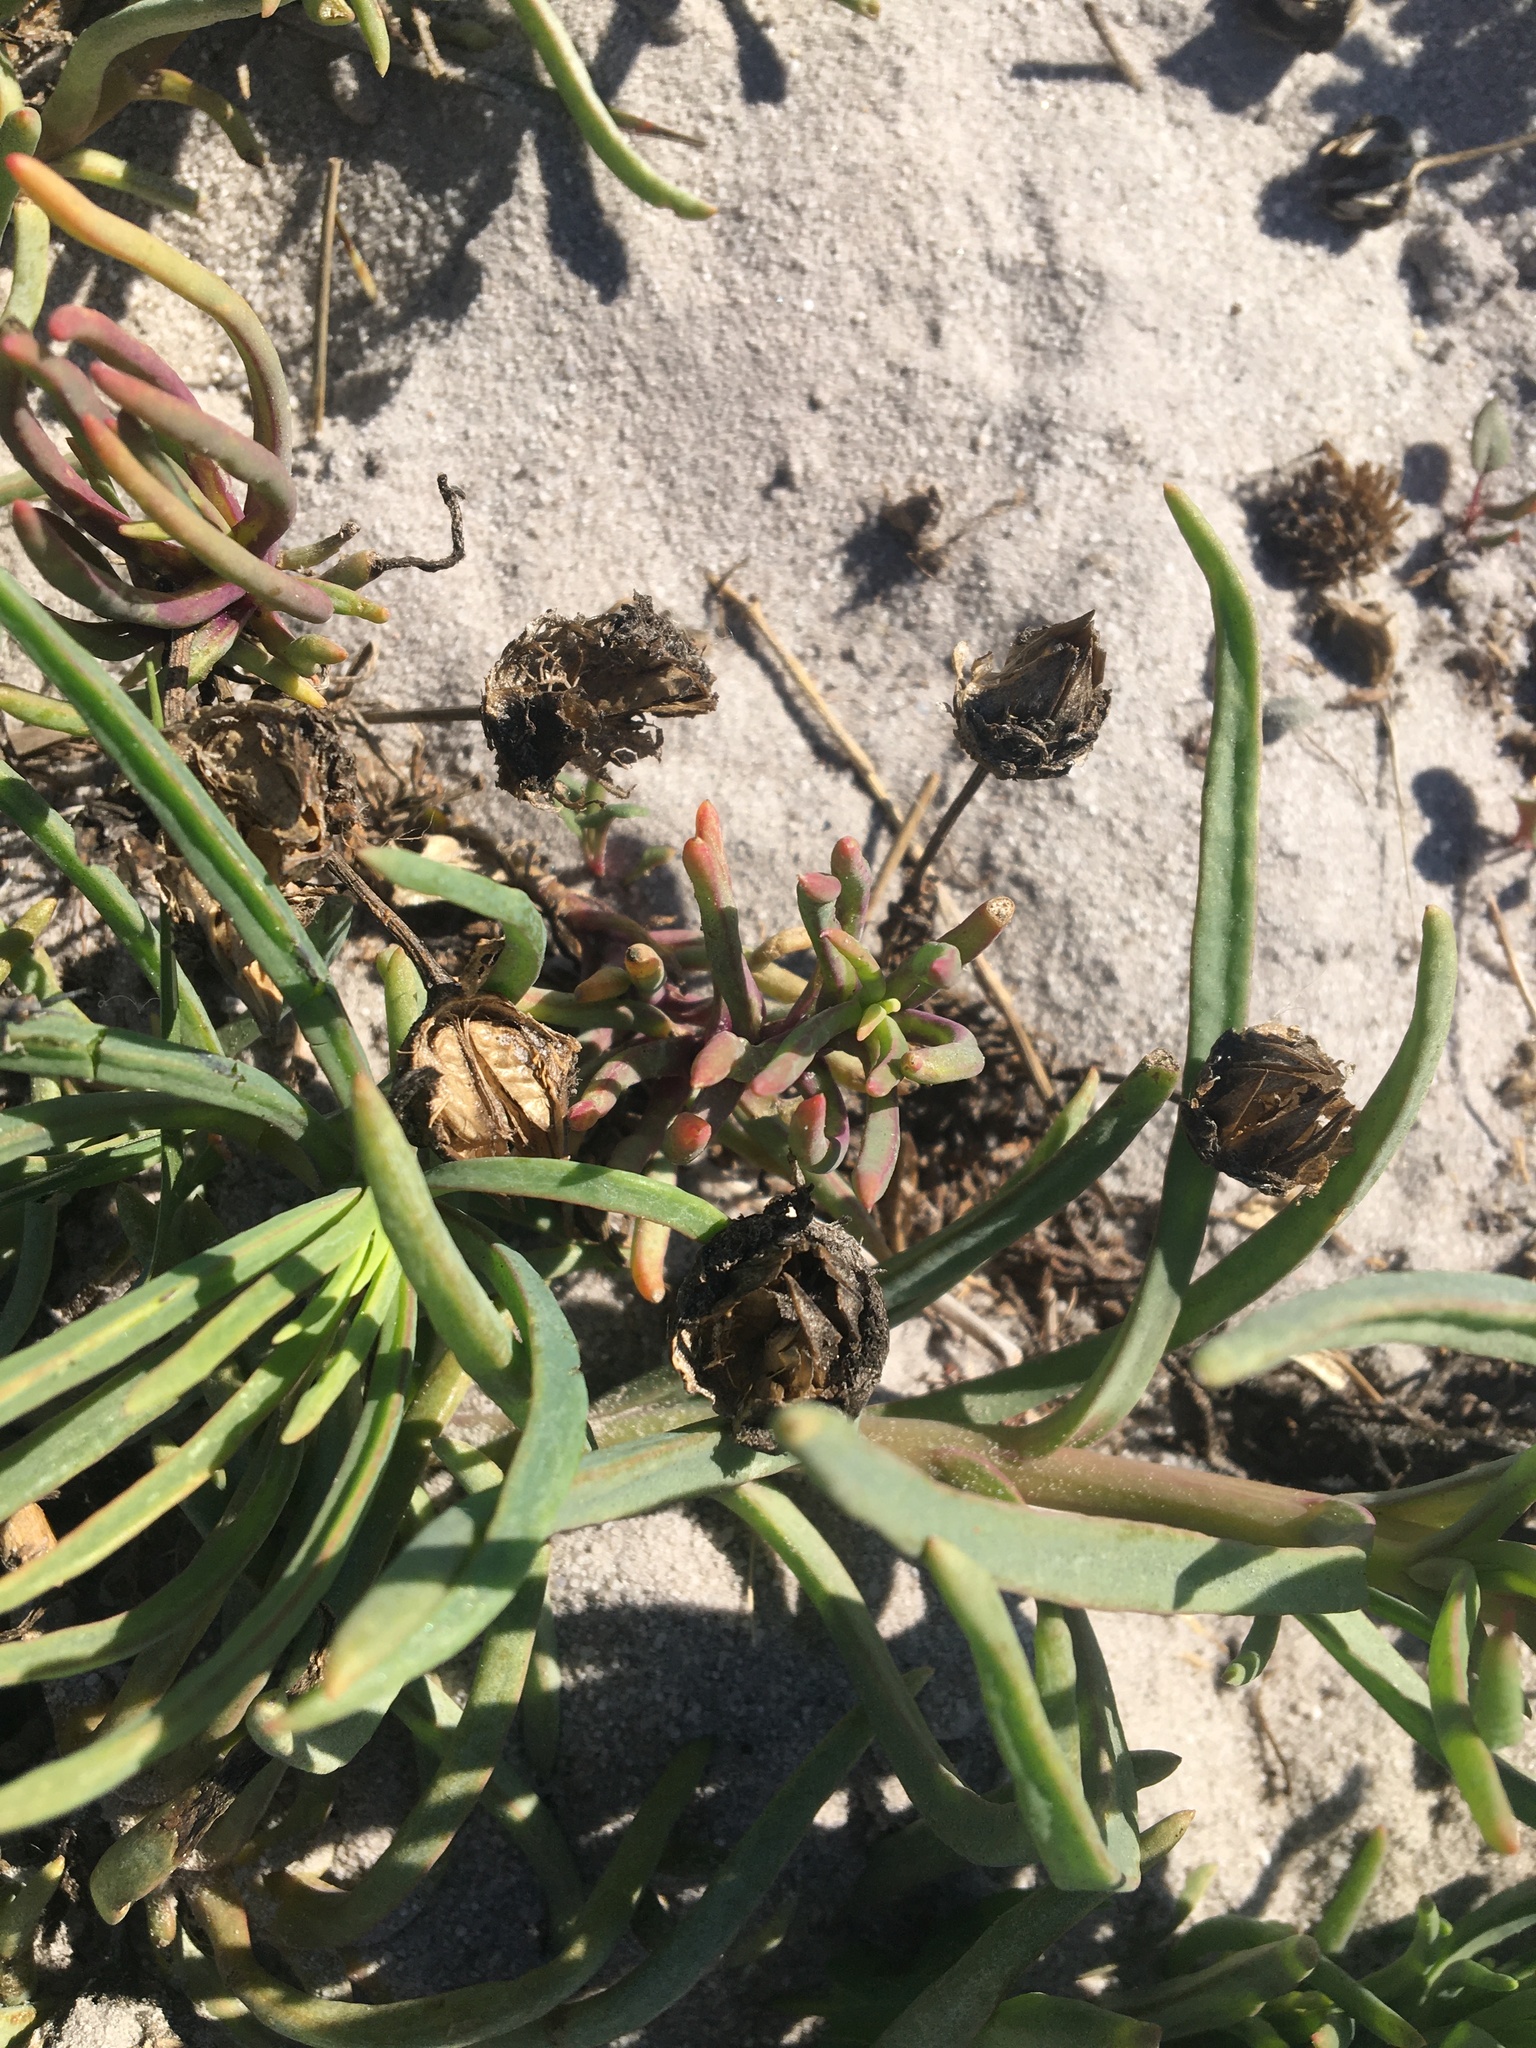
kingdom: Plantae
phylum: Tracheophyta
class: Magnoliopsida
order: Caryophyllales
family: Aizoaceae
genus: Conicosia
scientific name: Conicosia pugioniformis
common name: Narrow-leaved iceplant
